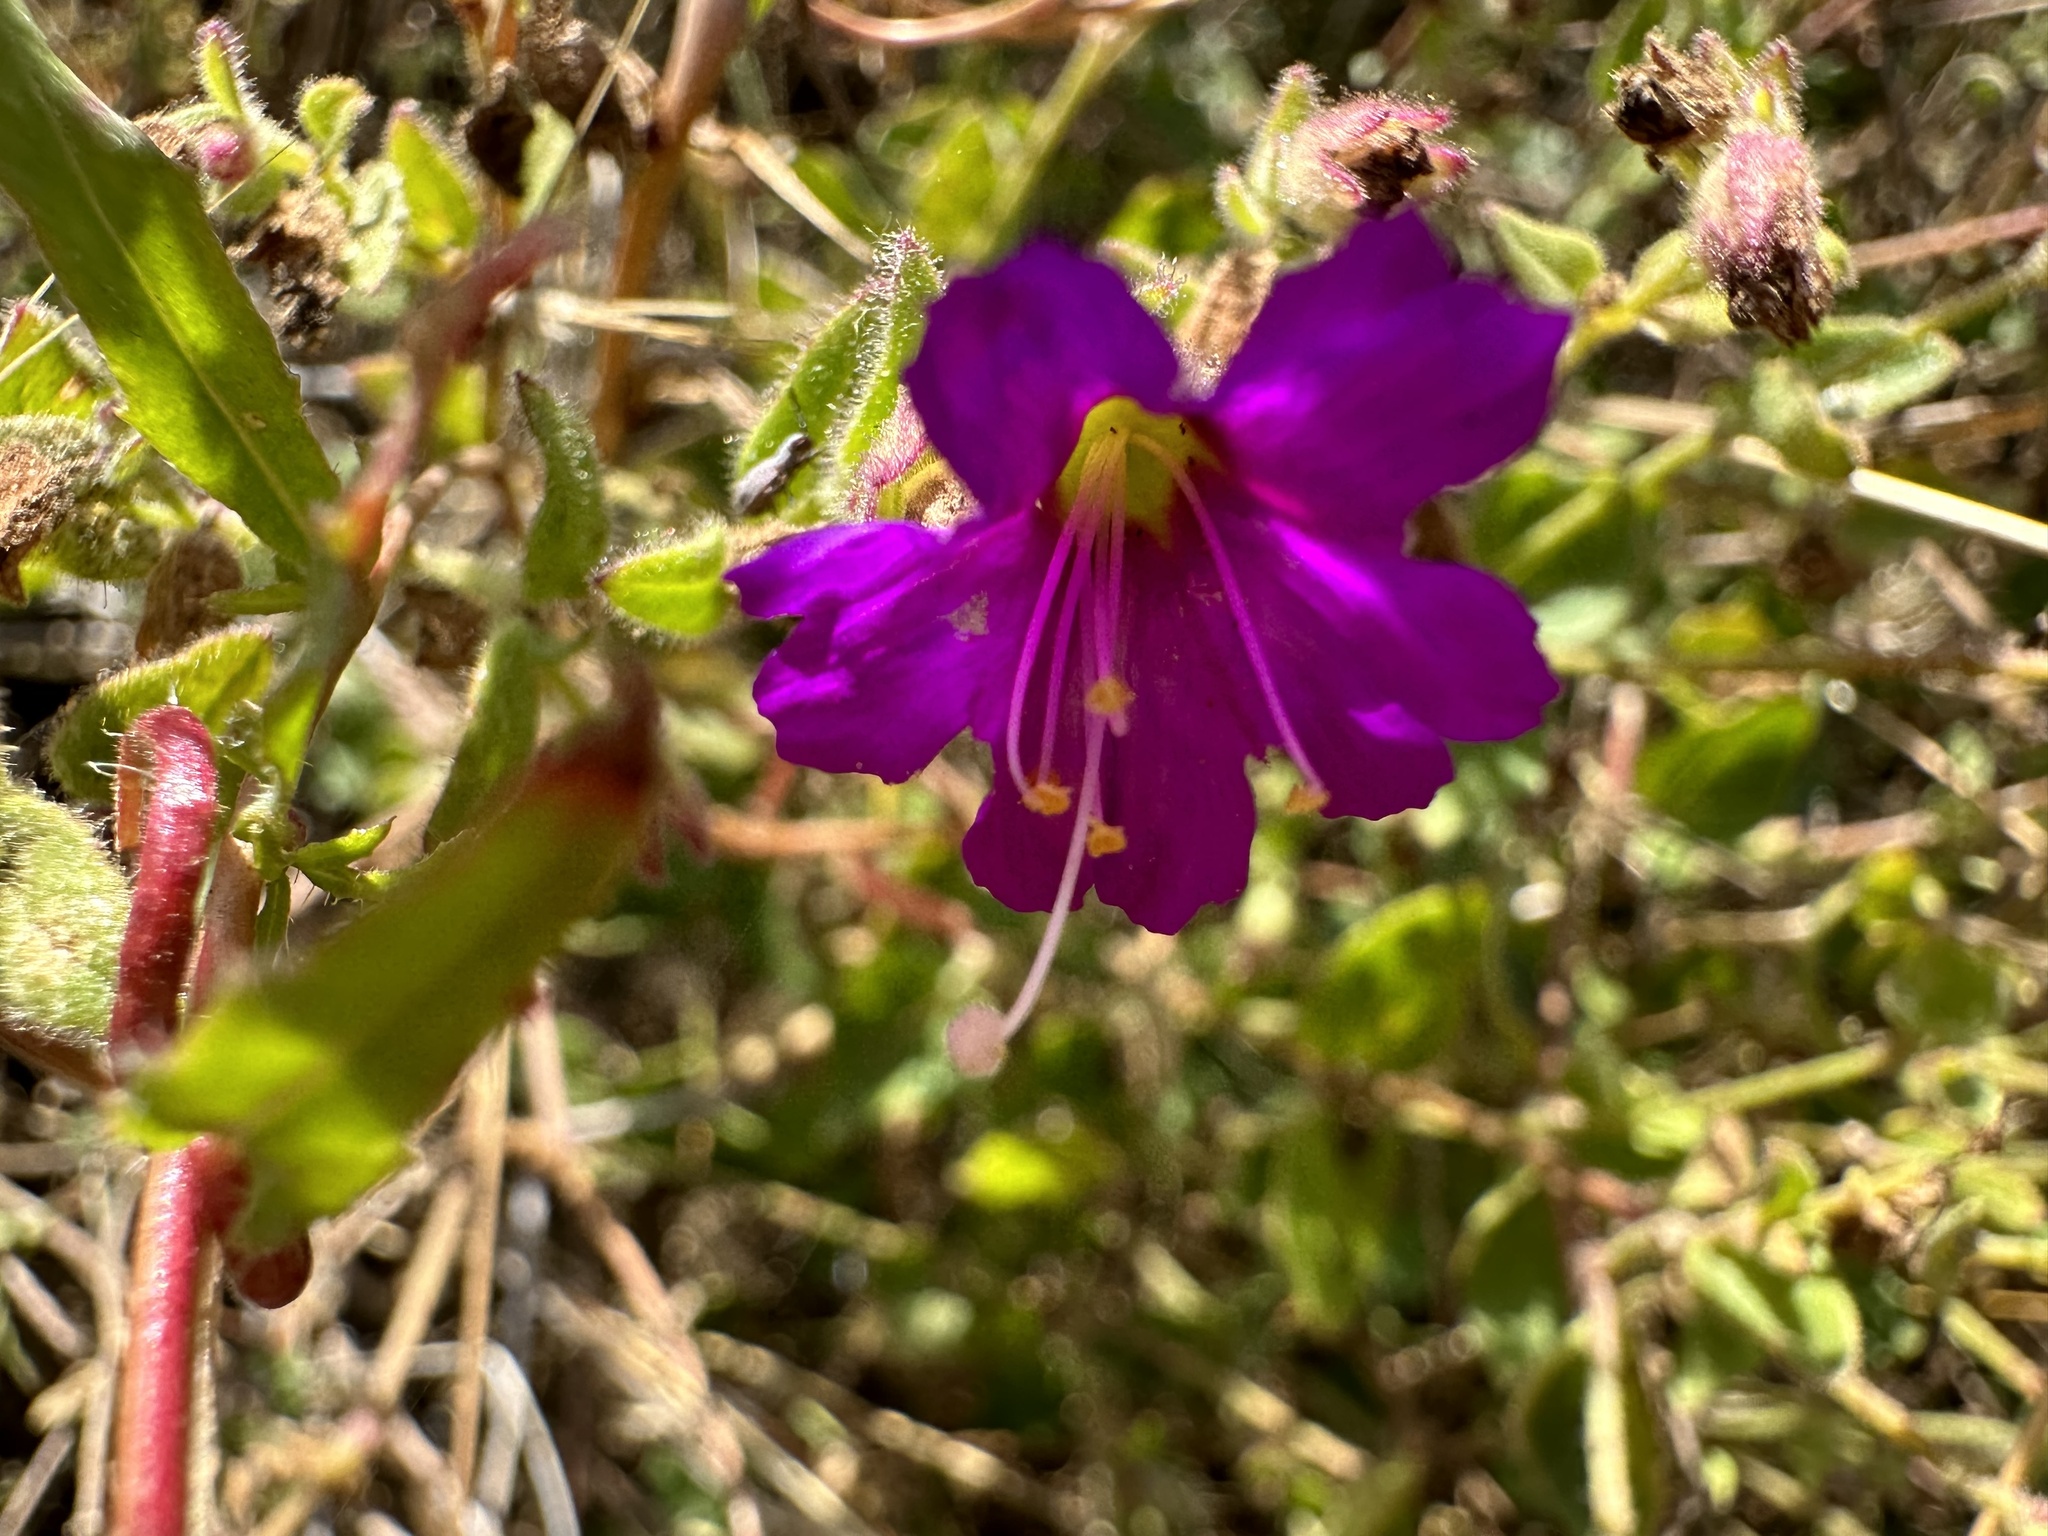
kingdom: Plantae
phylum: Tracheophyta
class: Magnoliopsida
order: Caryophyllales
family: Nyctaginaceae
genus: Mirabilis
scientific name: Mirabilis laevis
